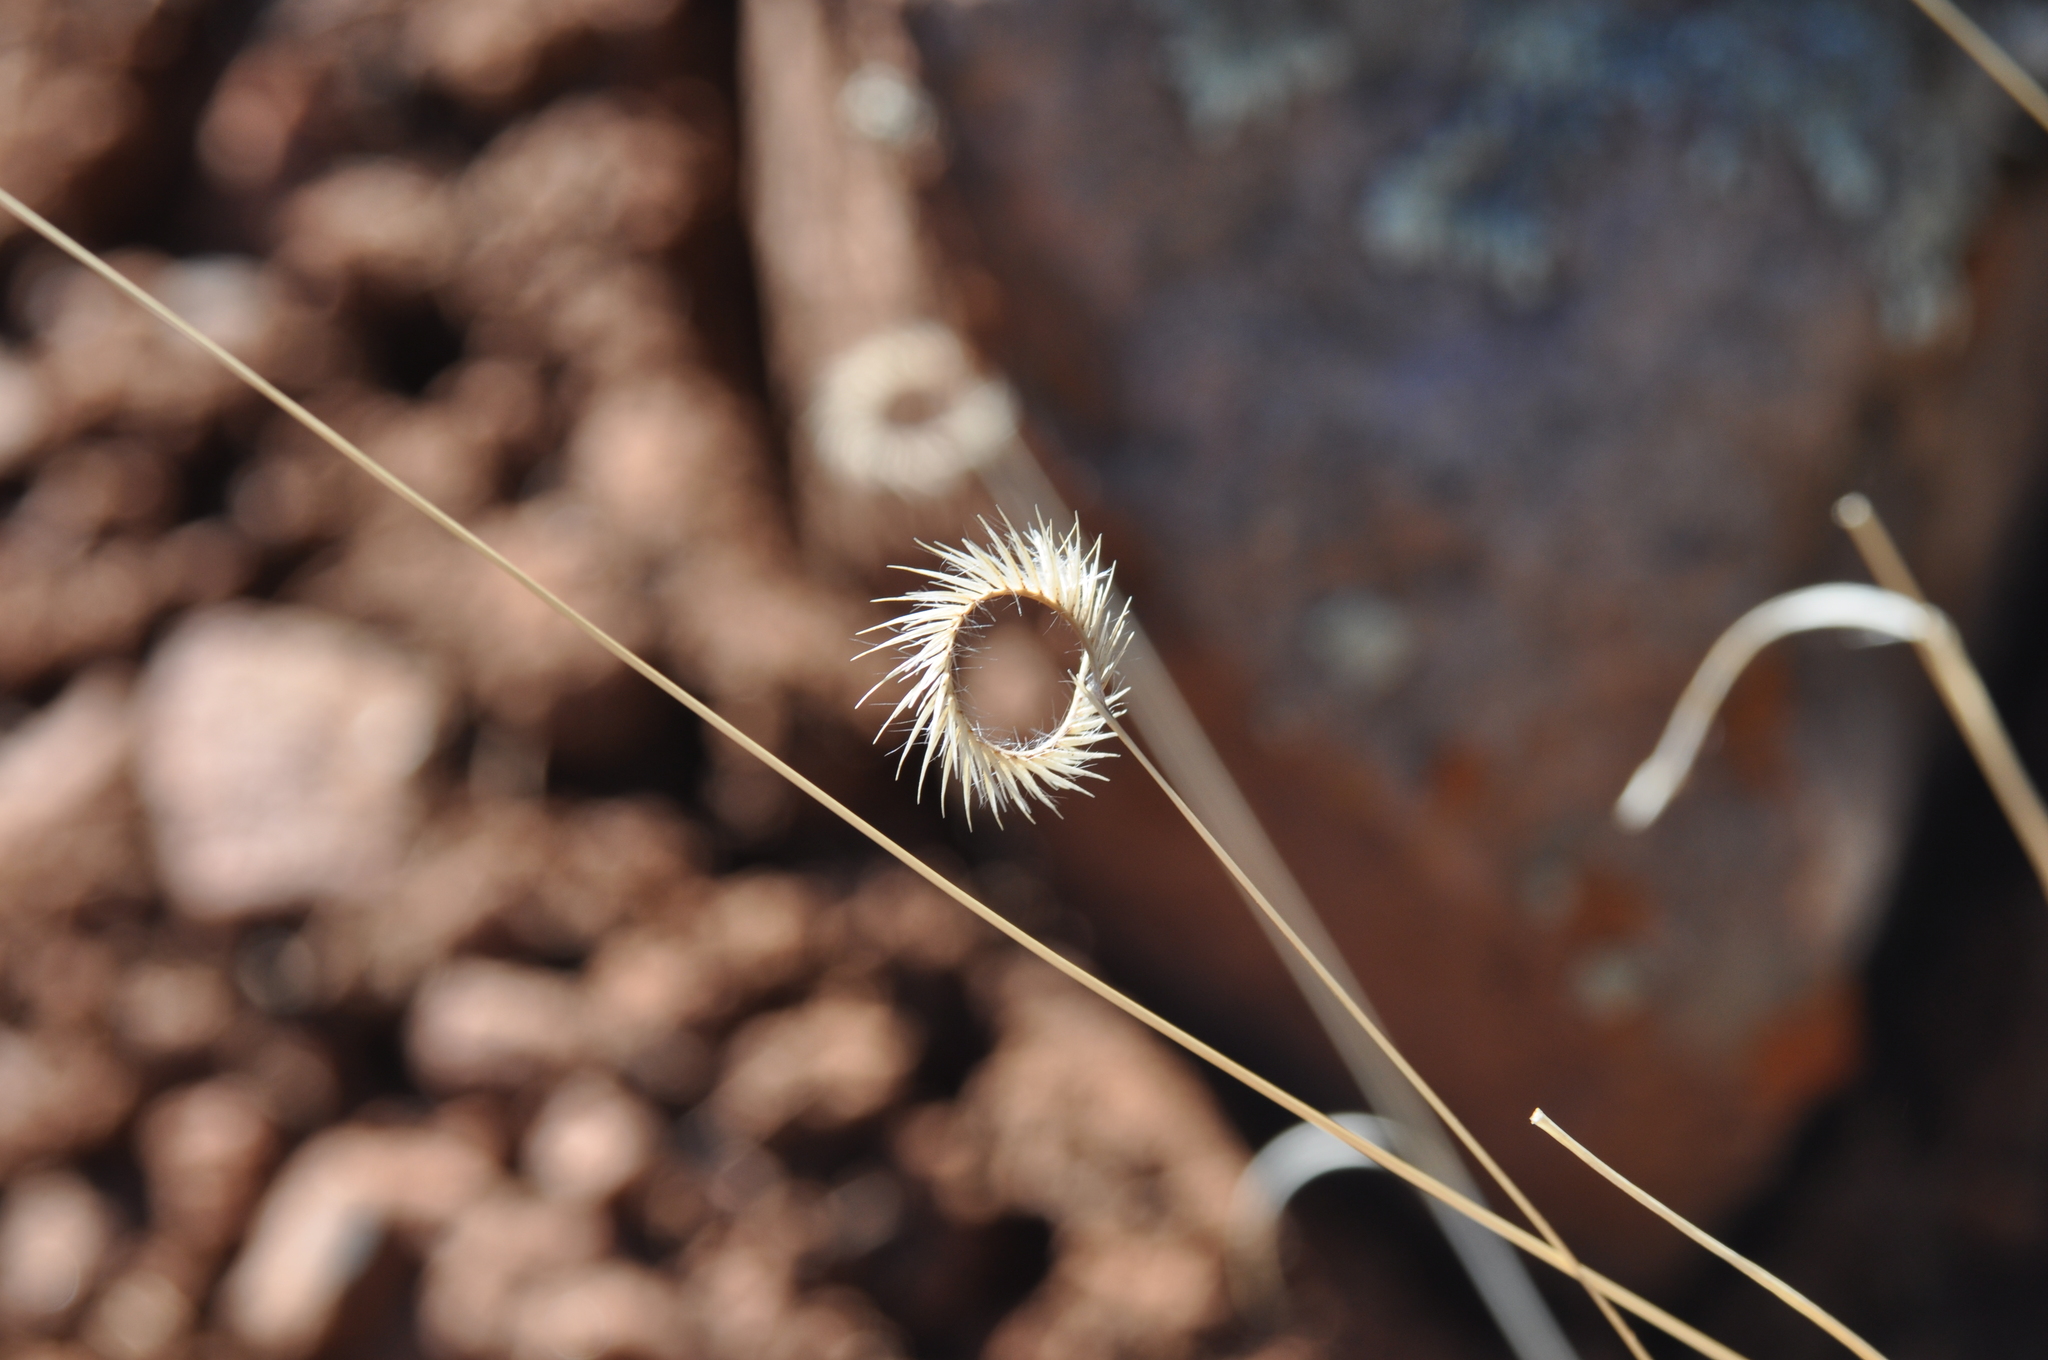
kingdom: Plantae
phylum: Tracheophyta
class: Liliopsida
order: Poales
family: Poaceae
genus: Bouteloua
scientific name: Bouteloua gracilis
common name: Blue grama
